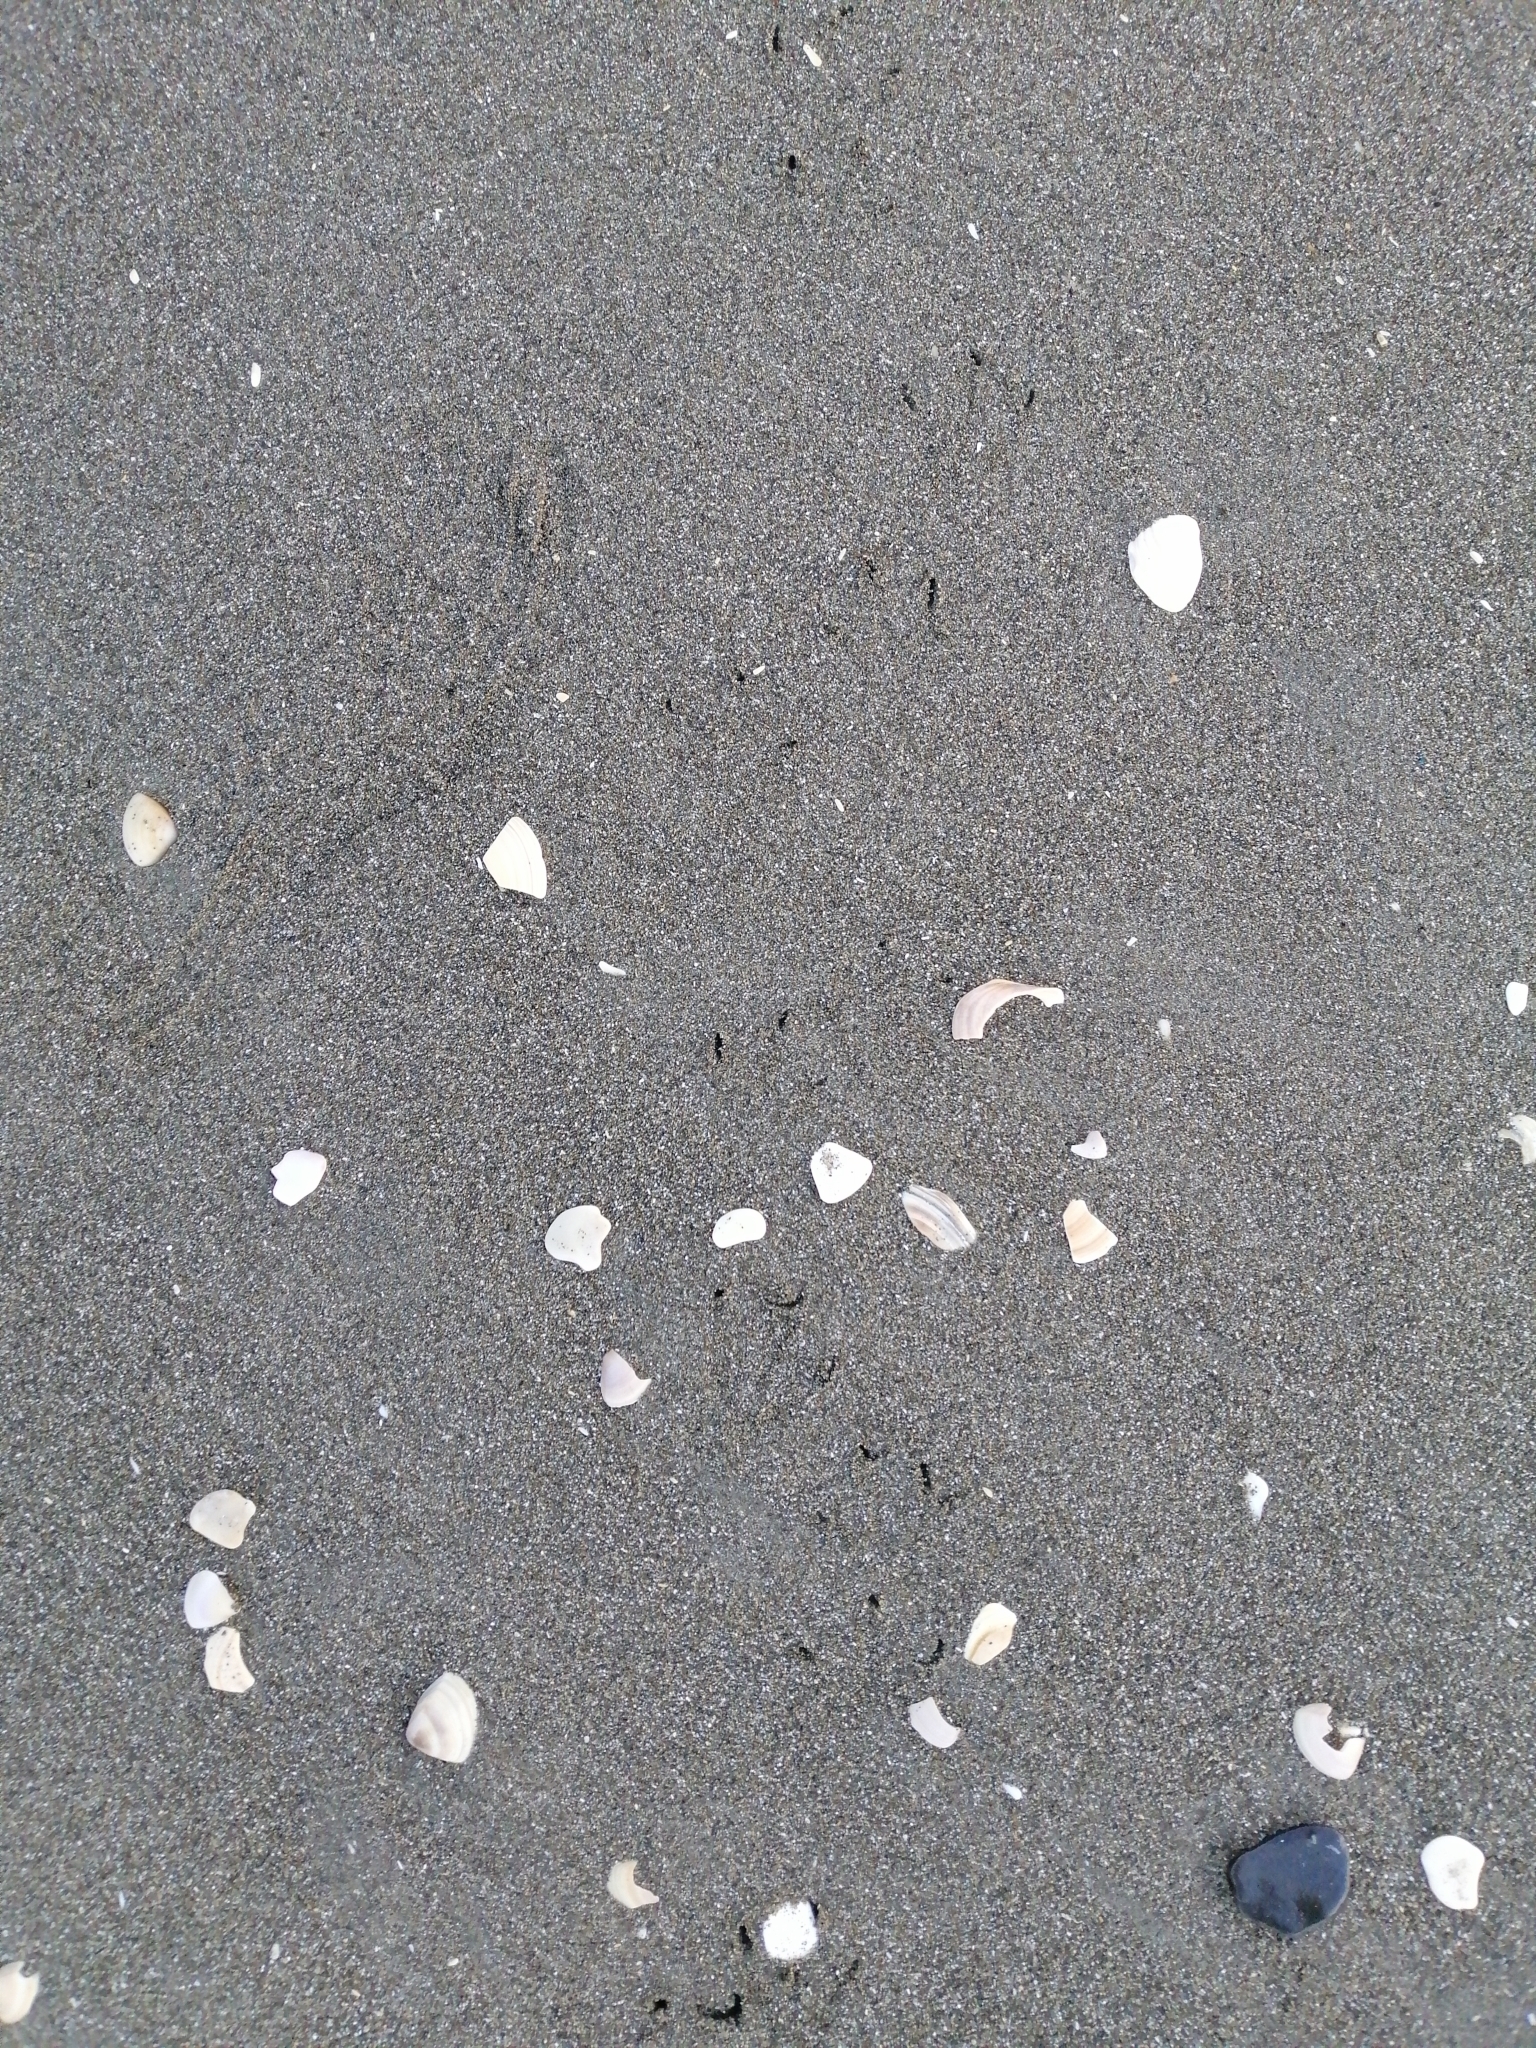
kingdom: Animalia
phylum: Chordata
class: Aves
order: Sphenisciformes
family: Spheniscidae
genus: Eudyptula
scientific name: Eudyptula minor
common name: Little penguin
